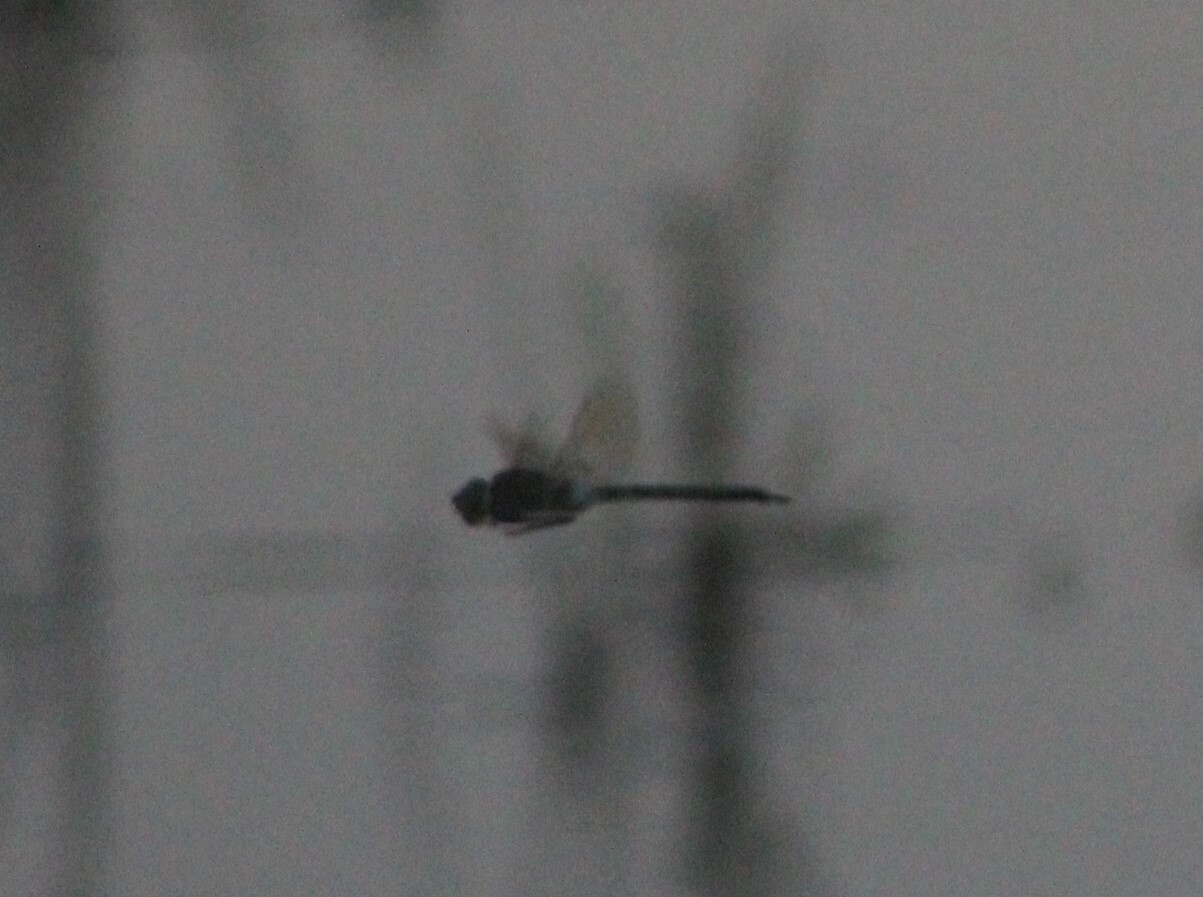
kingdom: Animalia
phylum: Arthropoda
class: Insecta
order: Odonata
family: Aeshnidae
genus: Anax
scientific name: Anax parthenope
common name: Lesser emperor
